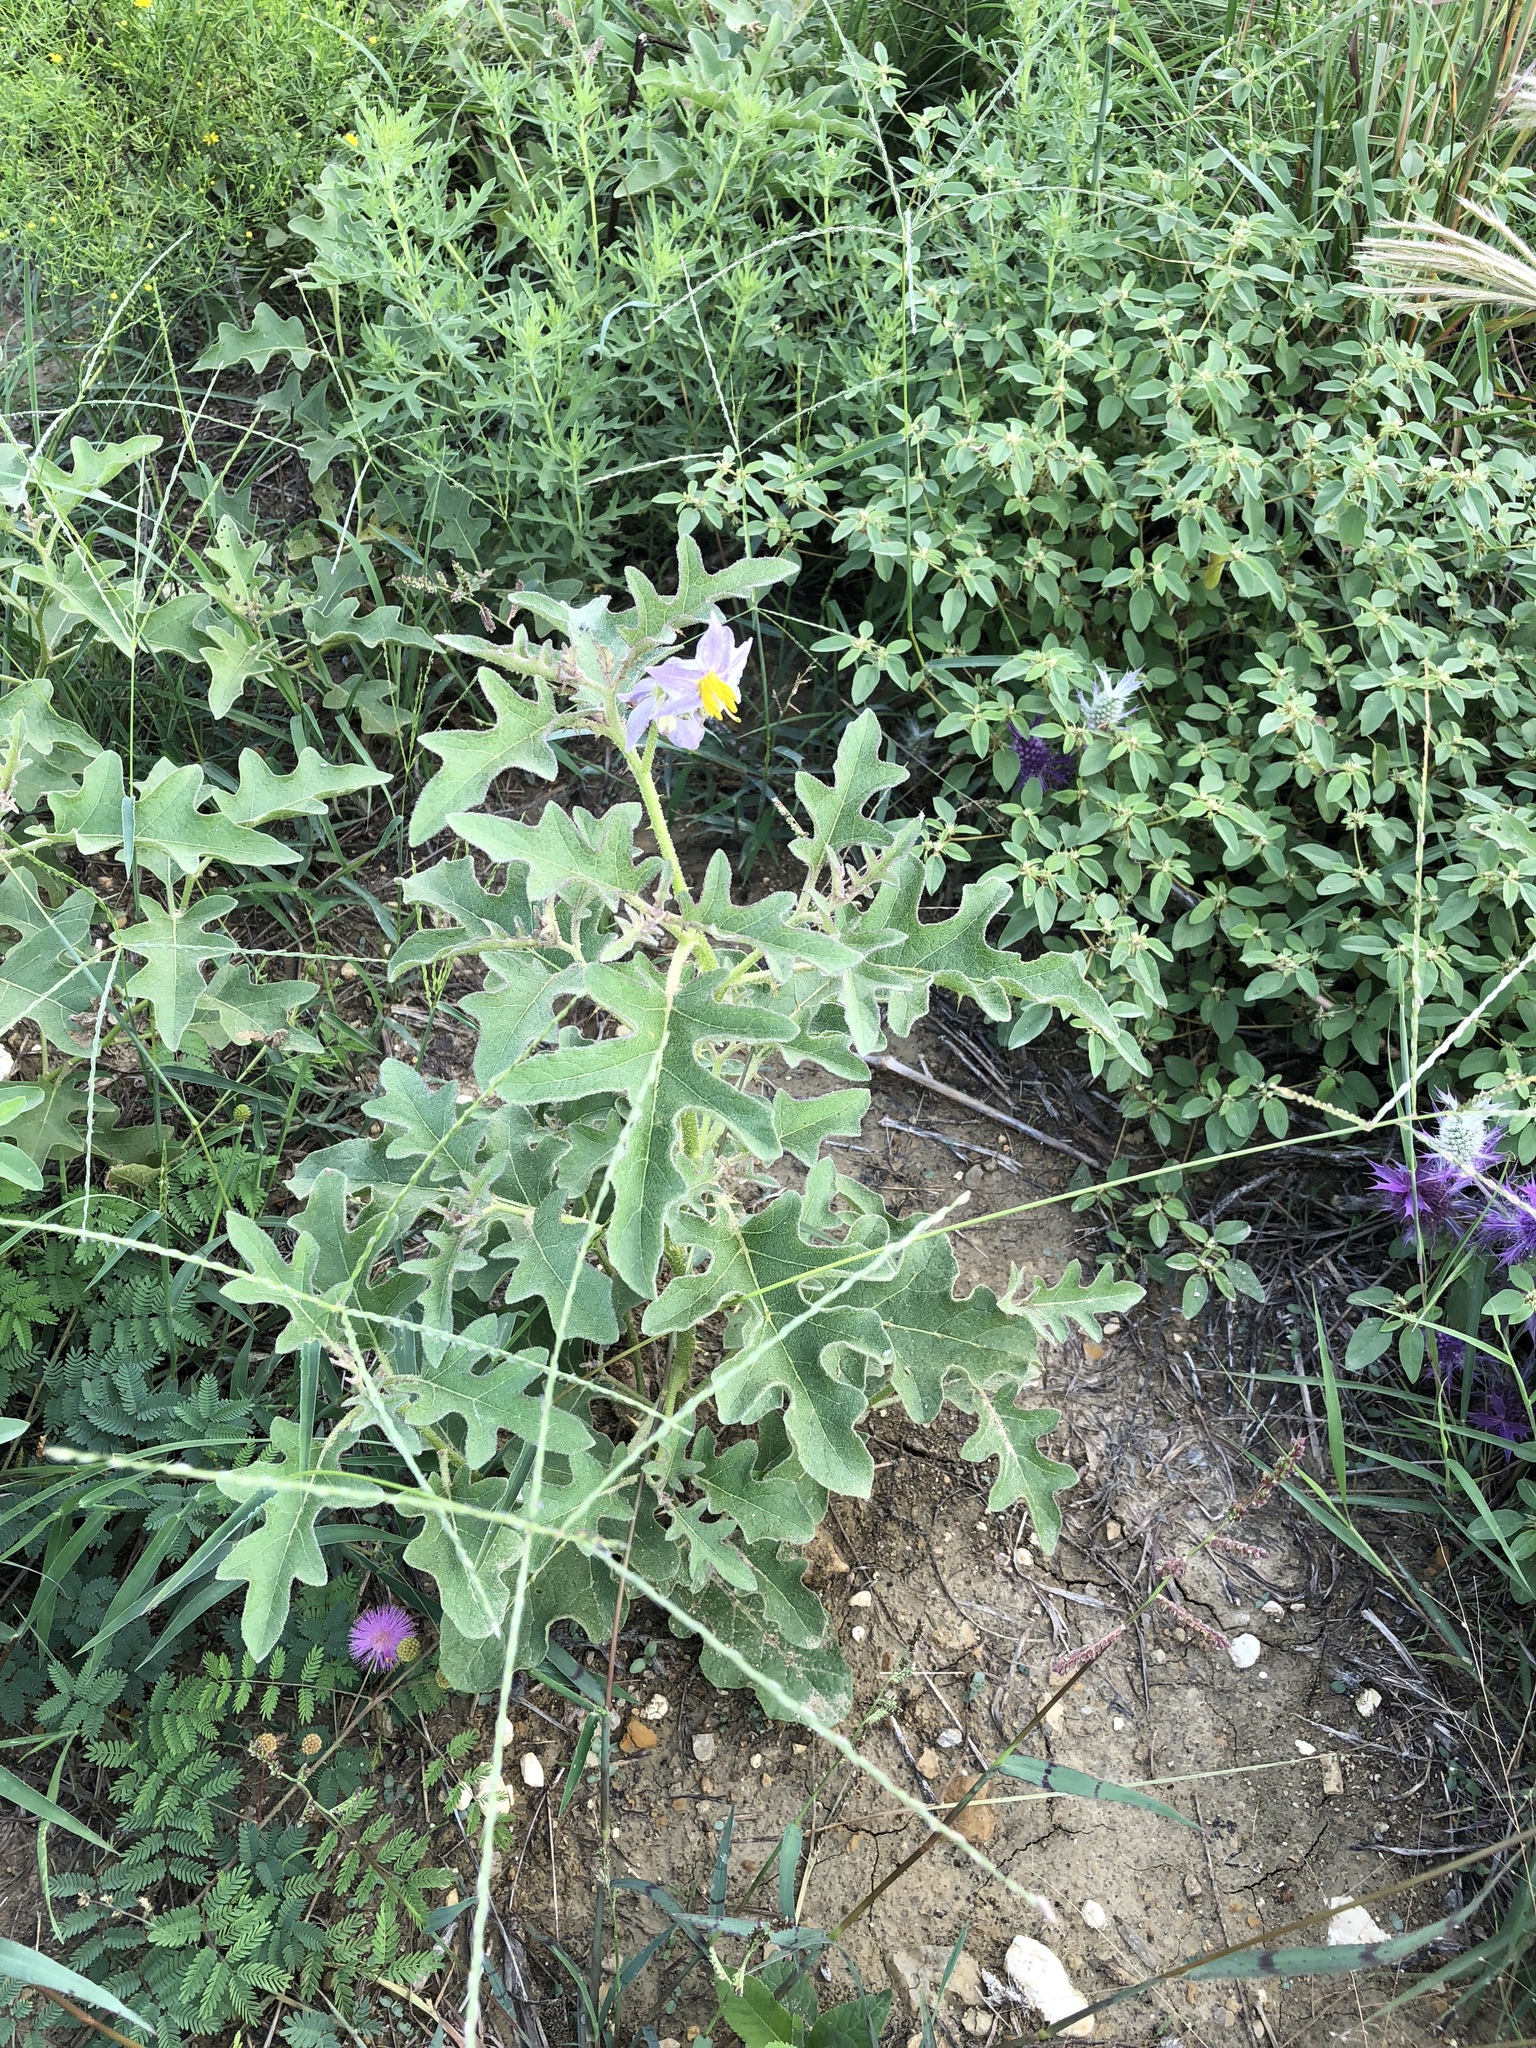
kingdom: Plantae
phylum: Tracheophyta
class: Magnoliopsida
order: Solanales
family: Solanaceae
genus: Solanum
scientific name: Solanum dimidiatum
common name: Carolina horse-nettle
